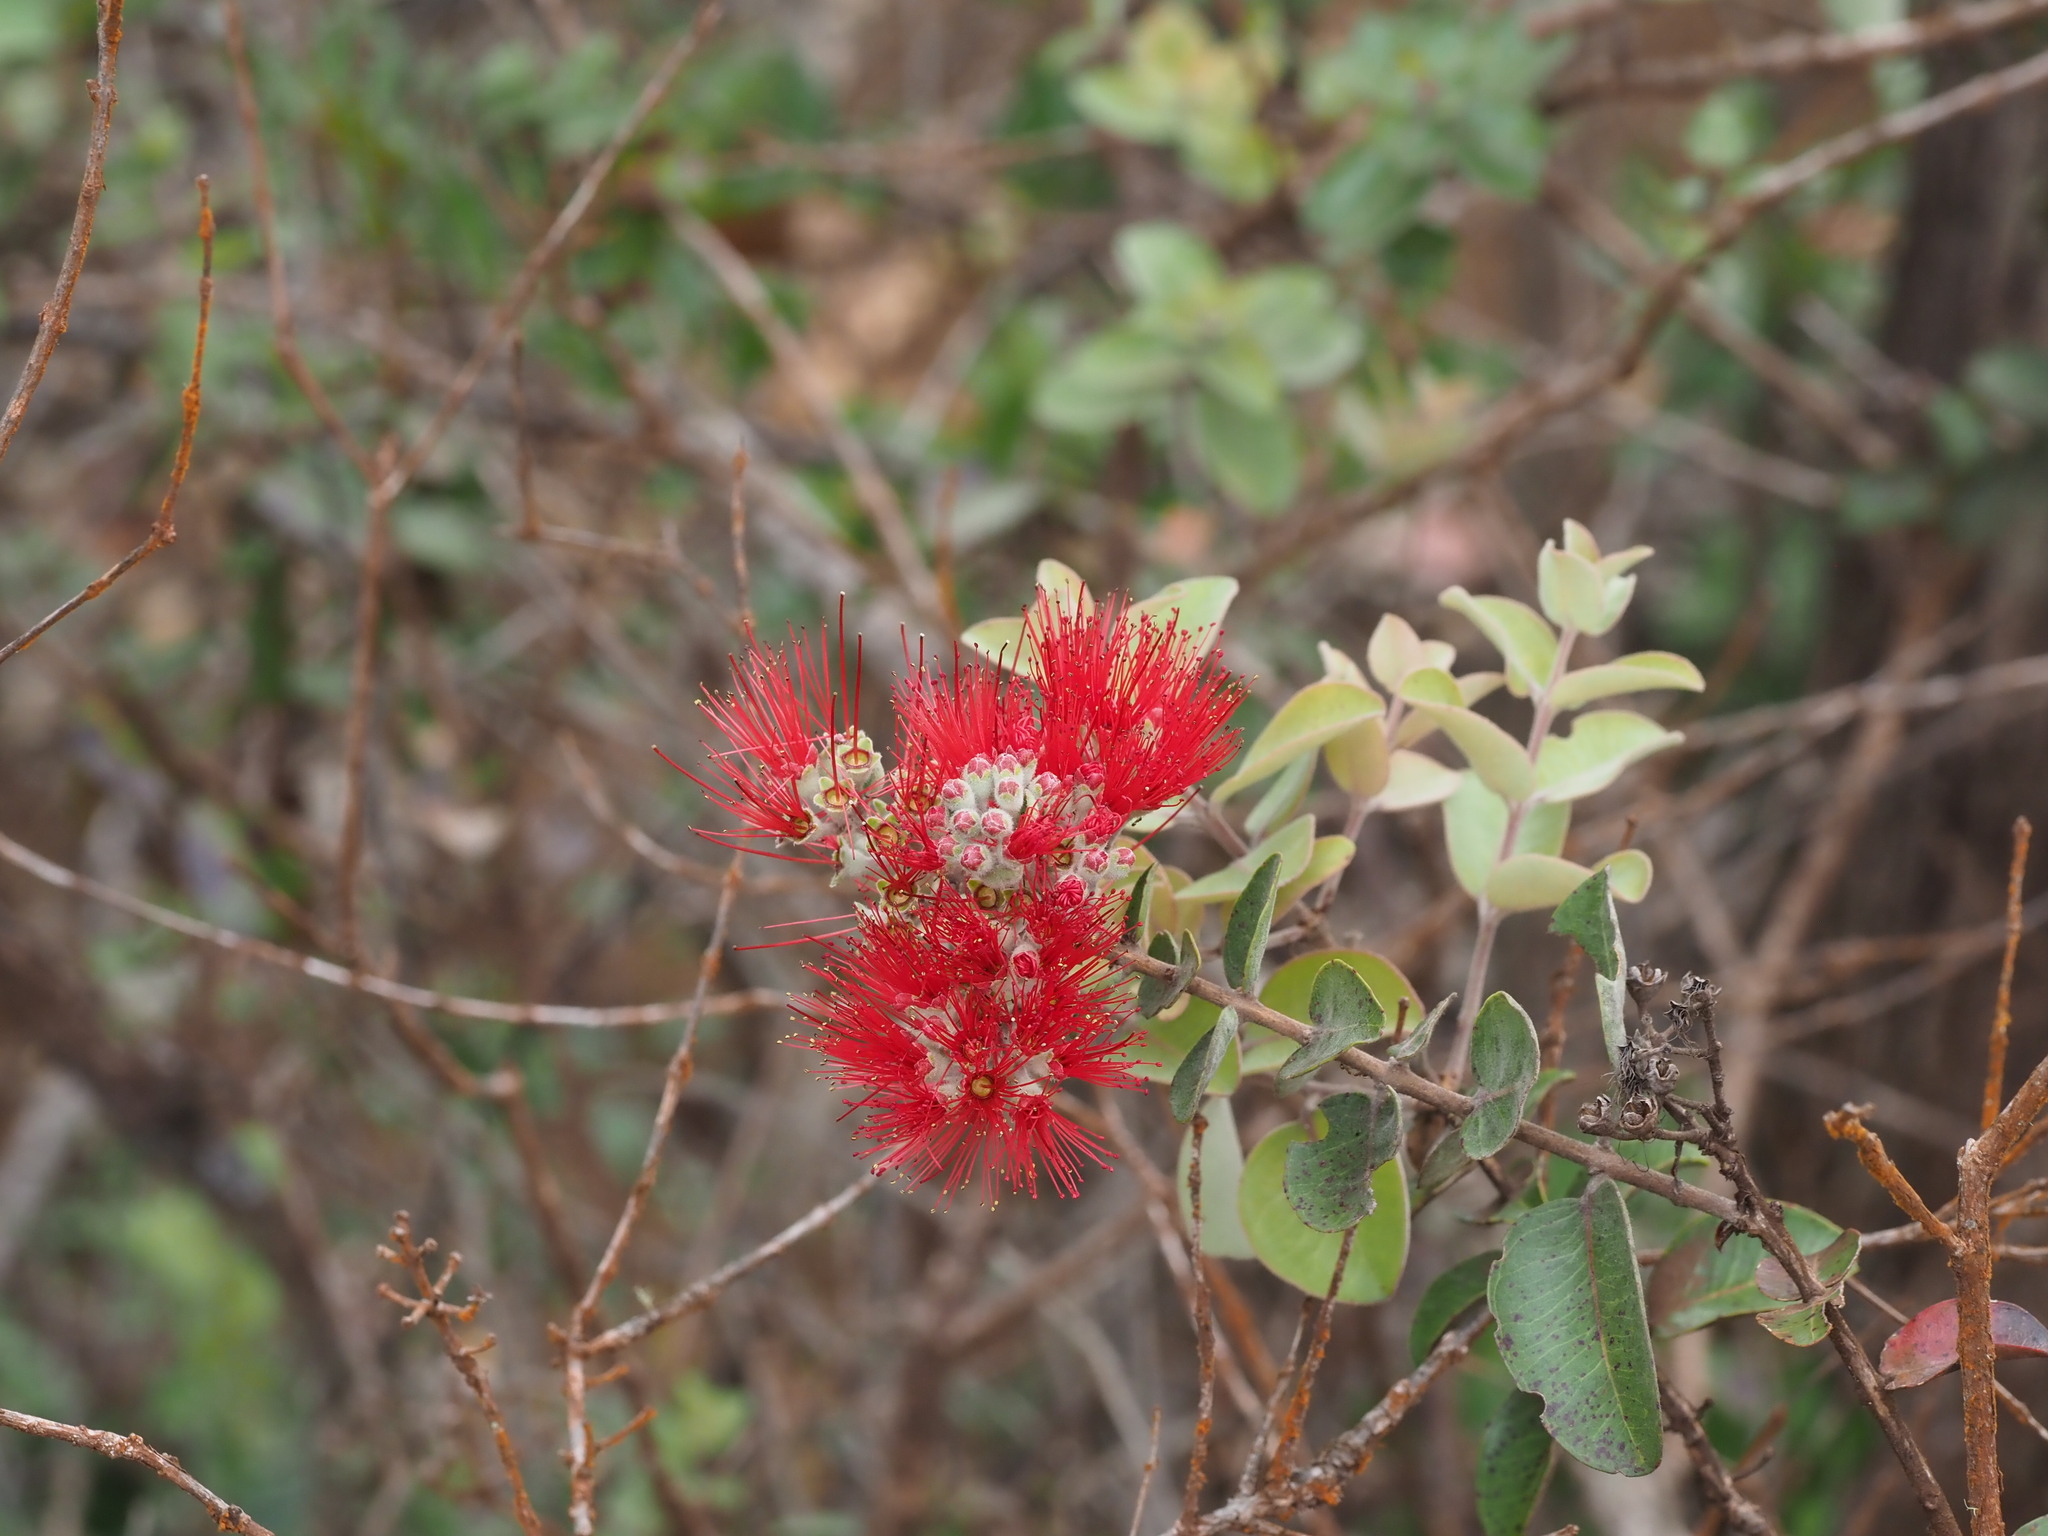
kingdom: Plantae
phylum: Tracheophyta
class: Magnoliopsida
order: Myrtales
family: Myrtaceae
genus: Metrosideros
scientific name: Metrosideros polymorpha
